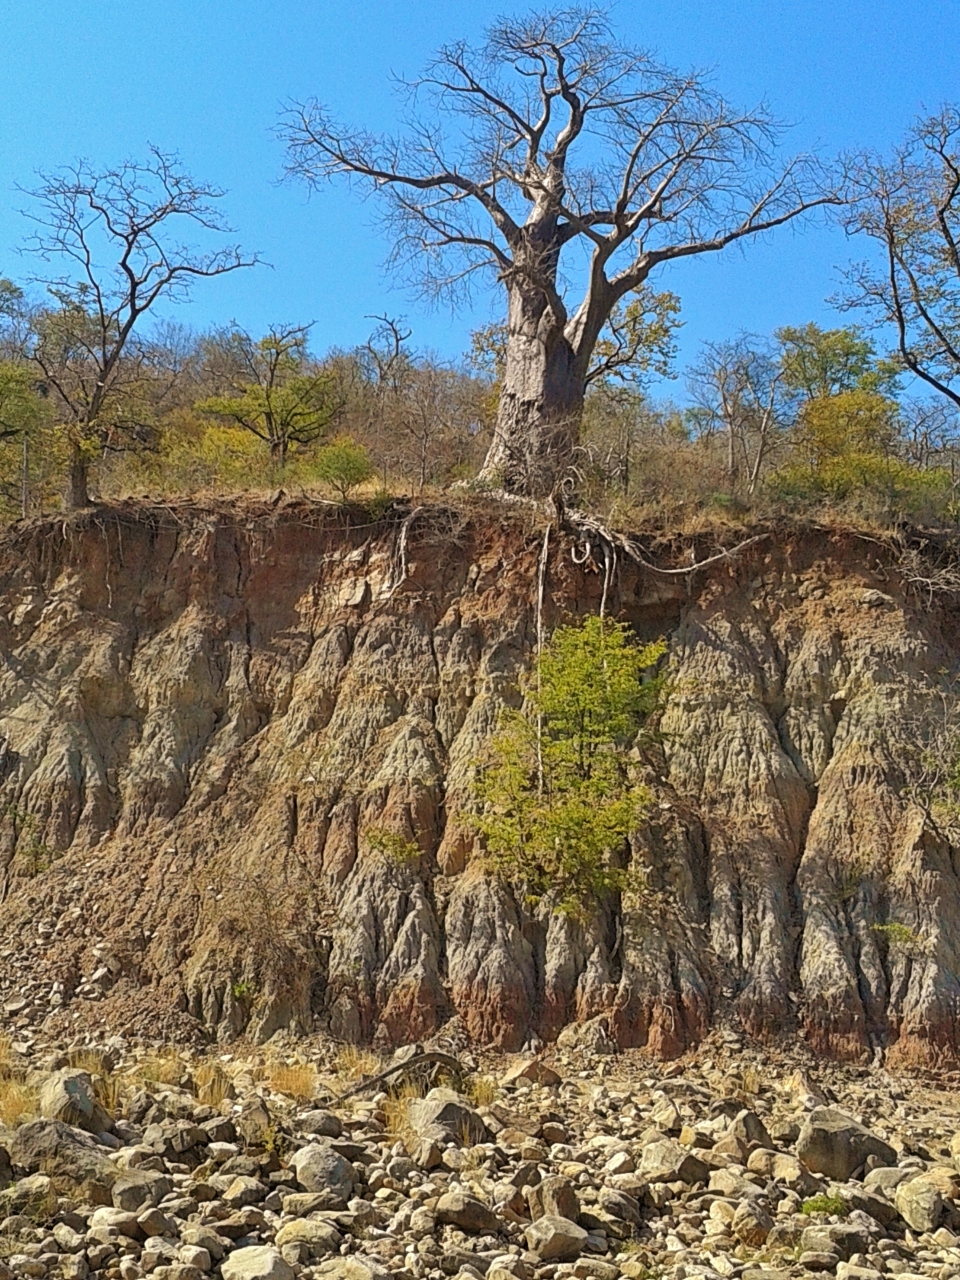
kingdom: Plantae
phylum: Tracheophyta
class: Magnoliopsida
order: Malvales
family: Malvaceae
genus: Adansonia
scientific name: Adansonia digitata
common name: Dead-rat-tree
